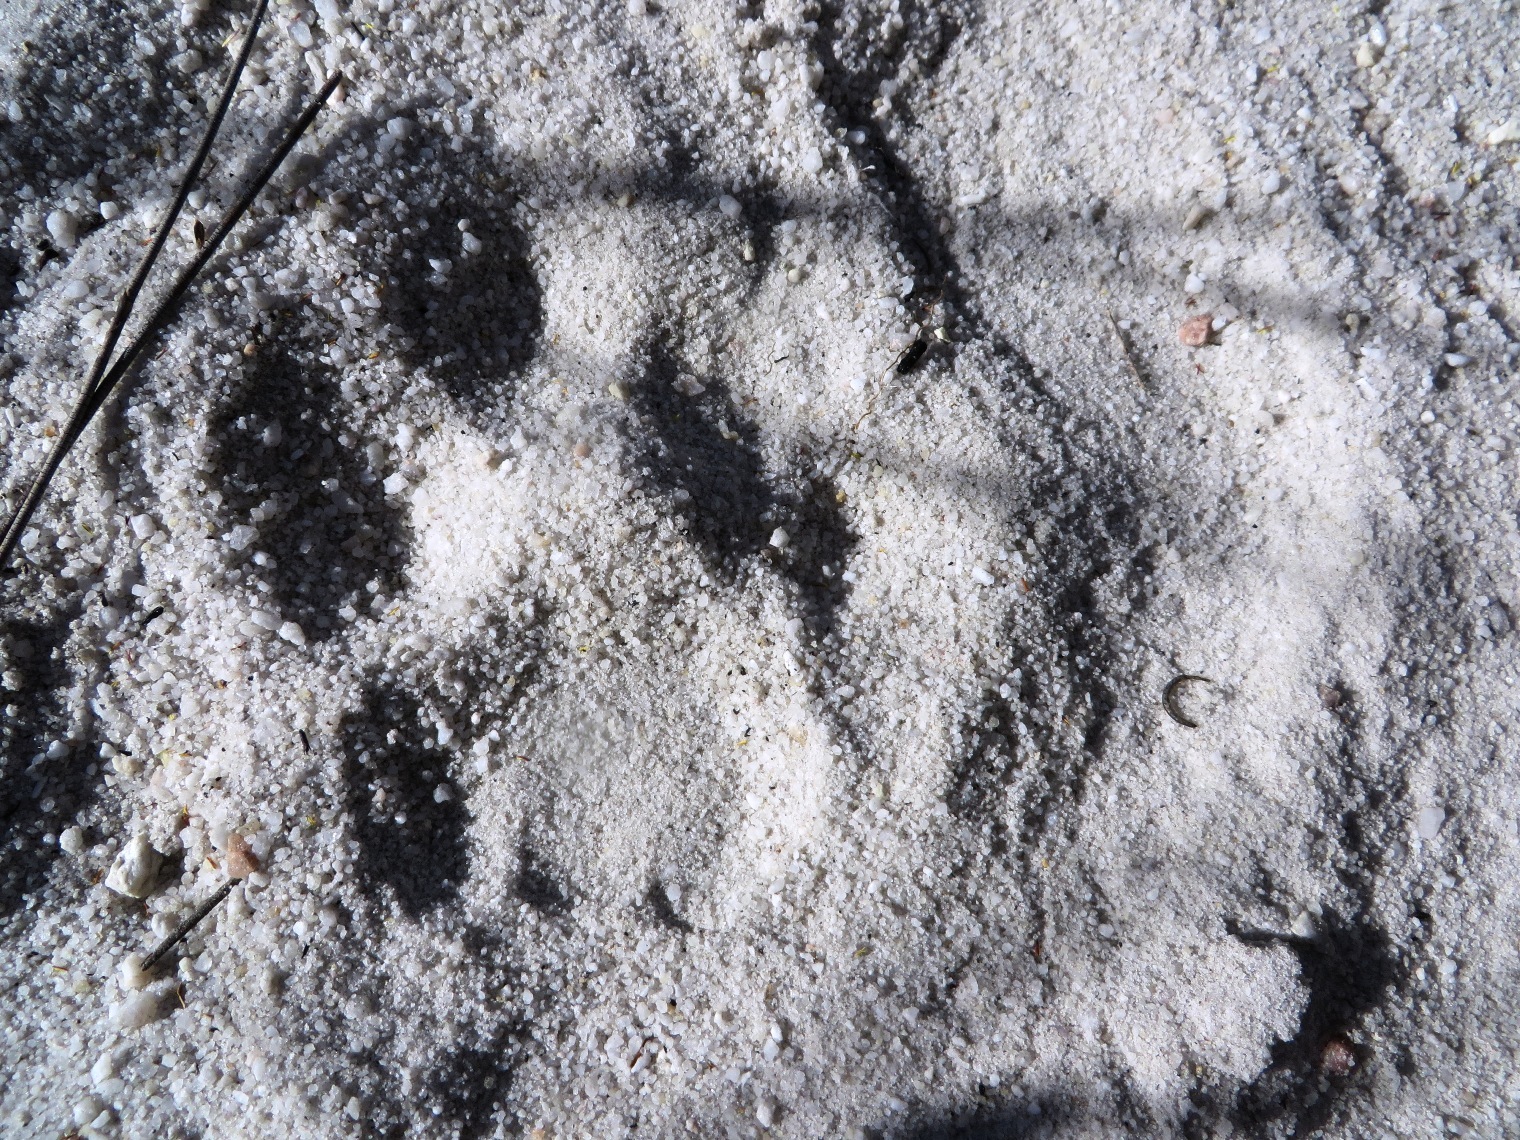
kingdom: Animalia
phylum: Chordata
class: Mammalia
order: Carnivora
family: Felidae
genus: Panthera
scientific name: Panthera pardus
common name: Leopard
